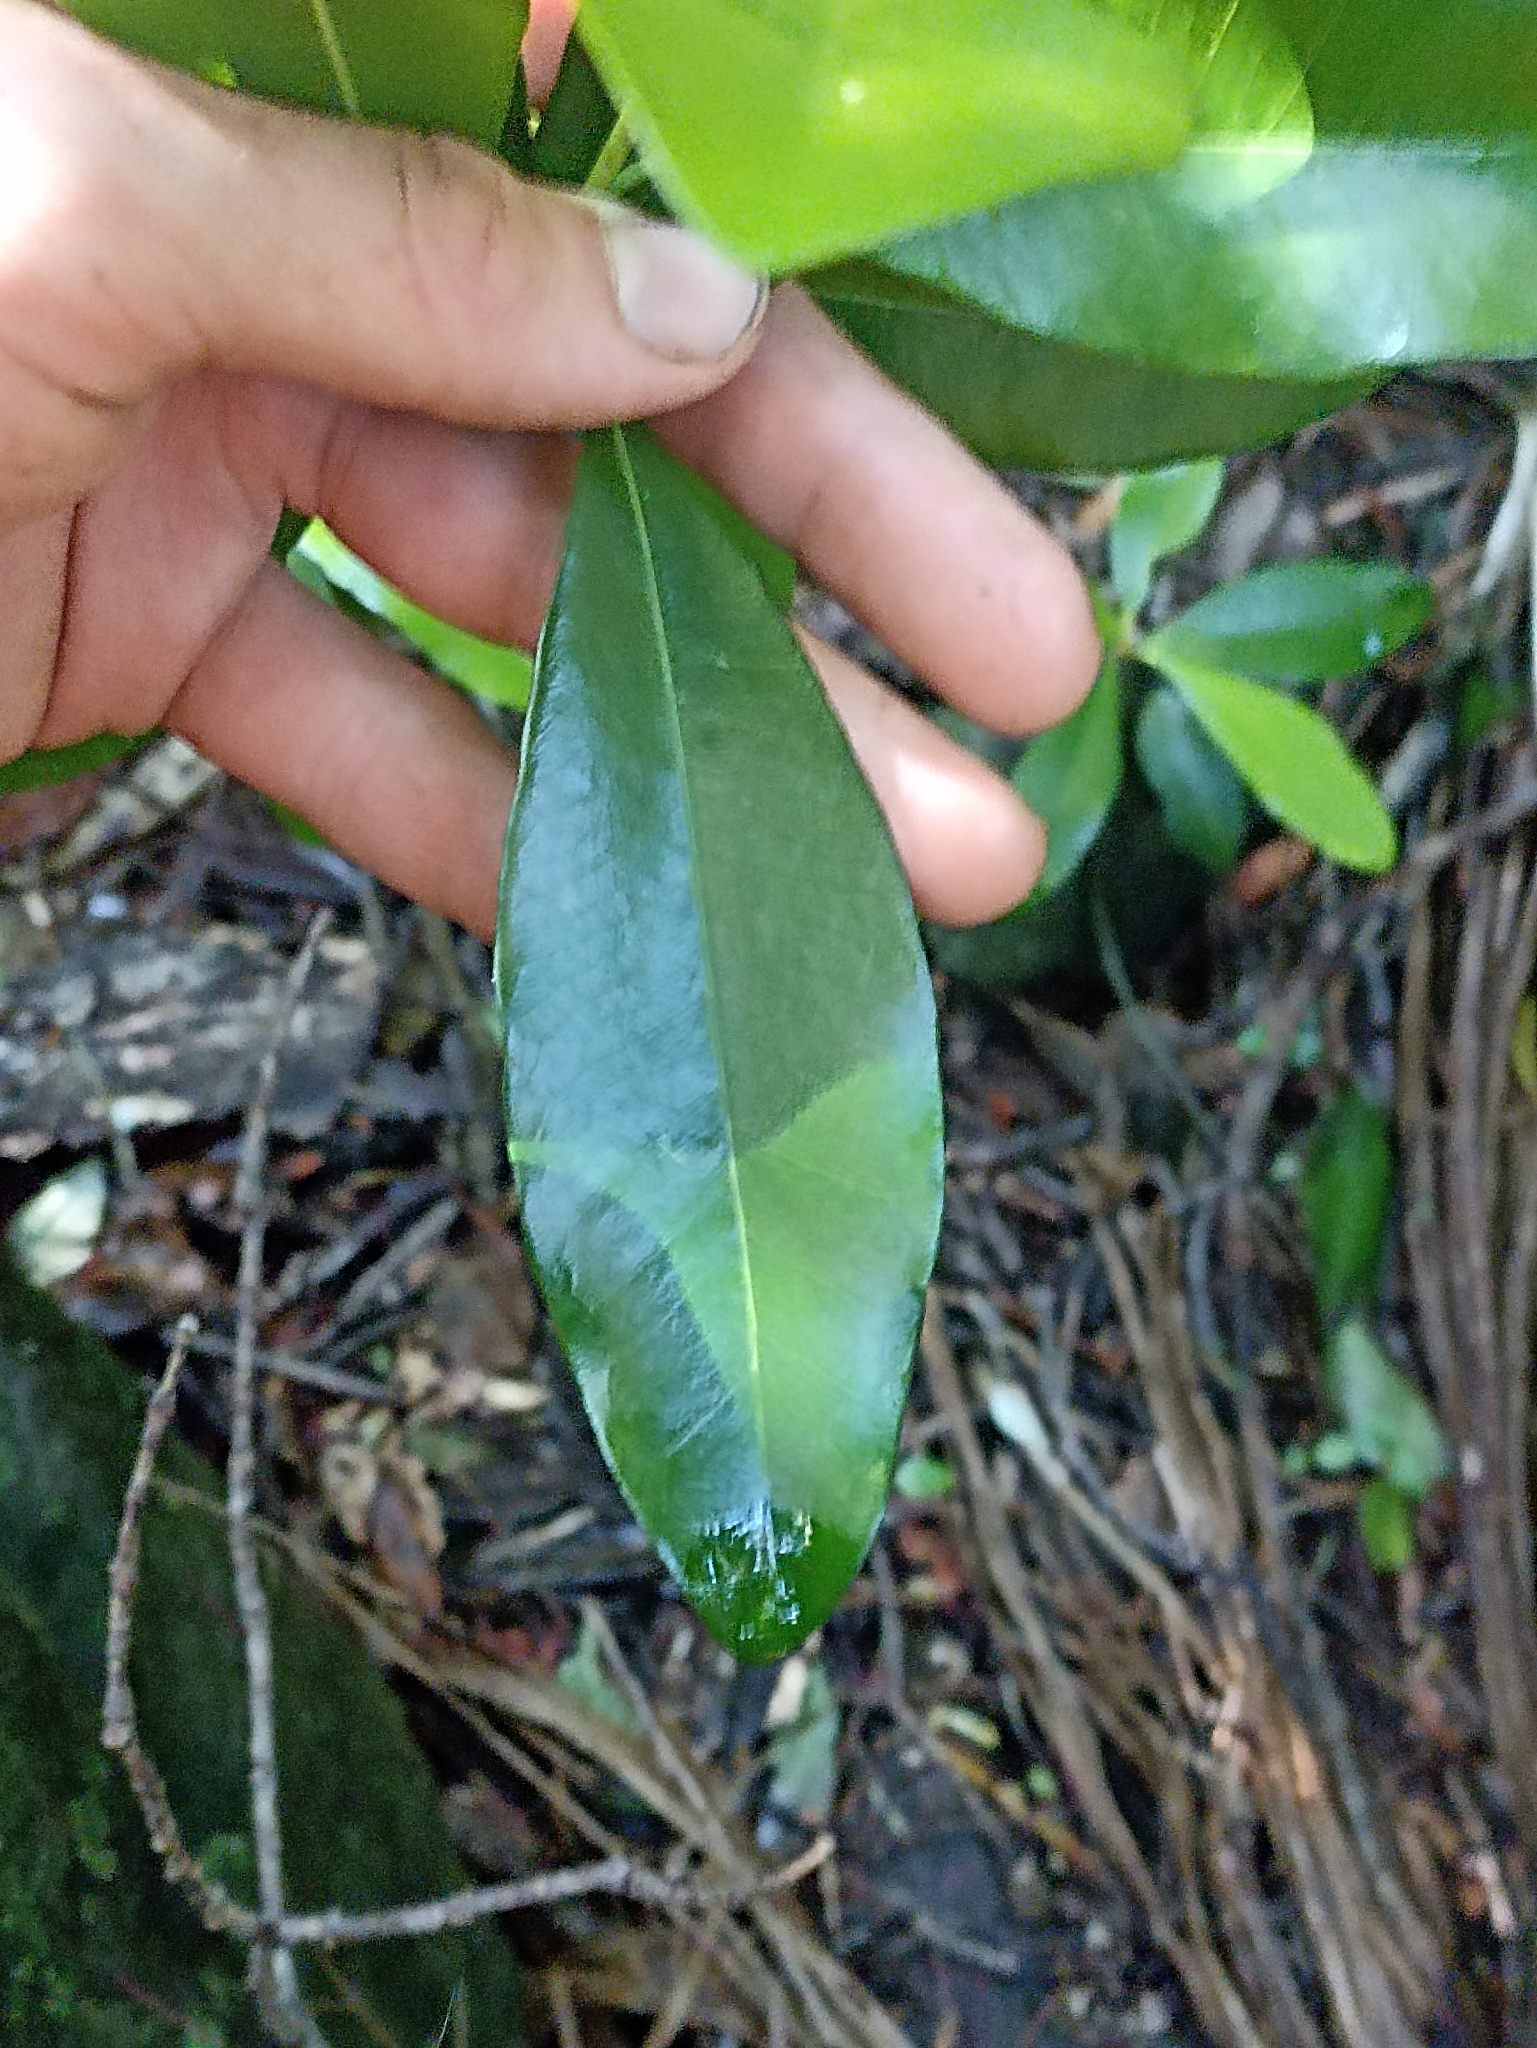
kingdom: Plantae
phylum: Tracheophyta
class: Magnoliopsida
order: Ericales
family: Sapotaceae
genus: Planchonella
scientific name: Planchonella costata
